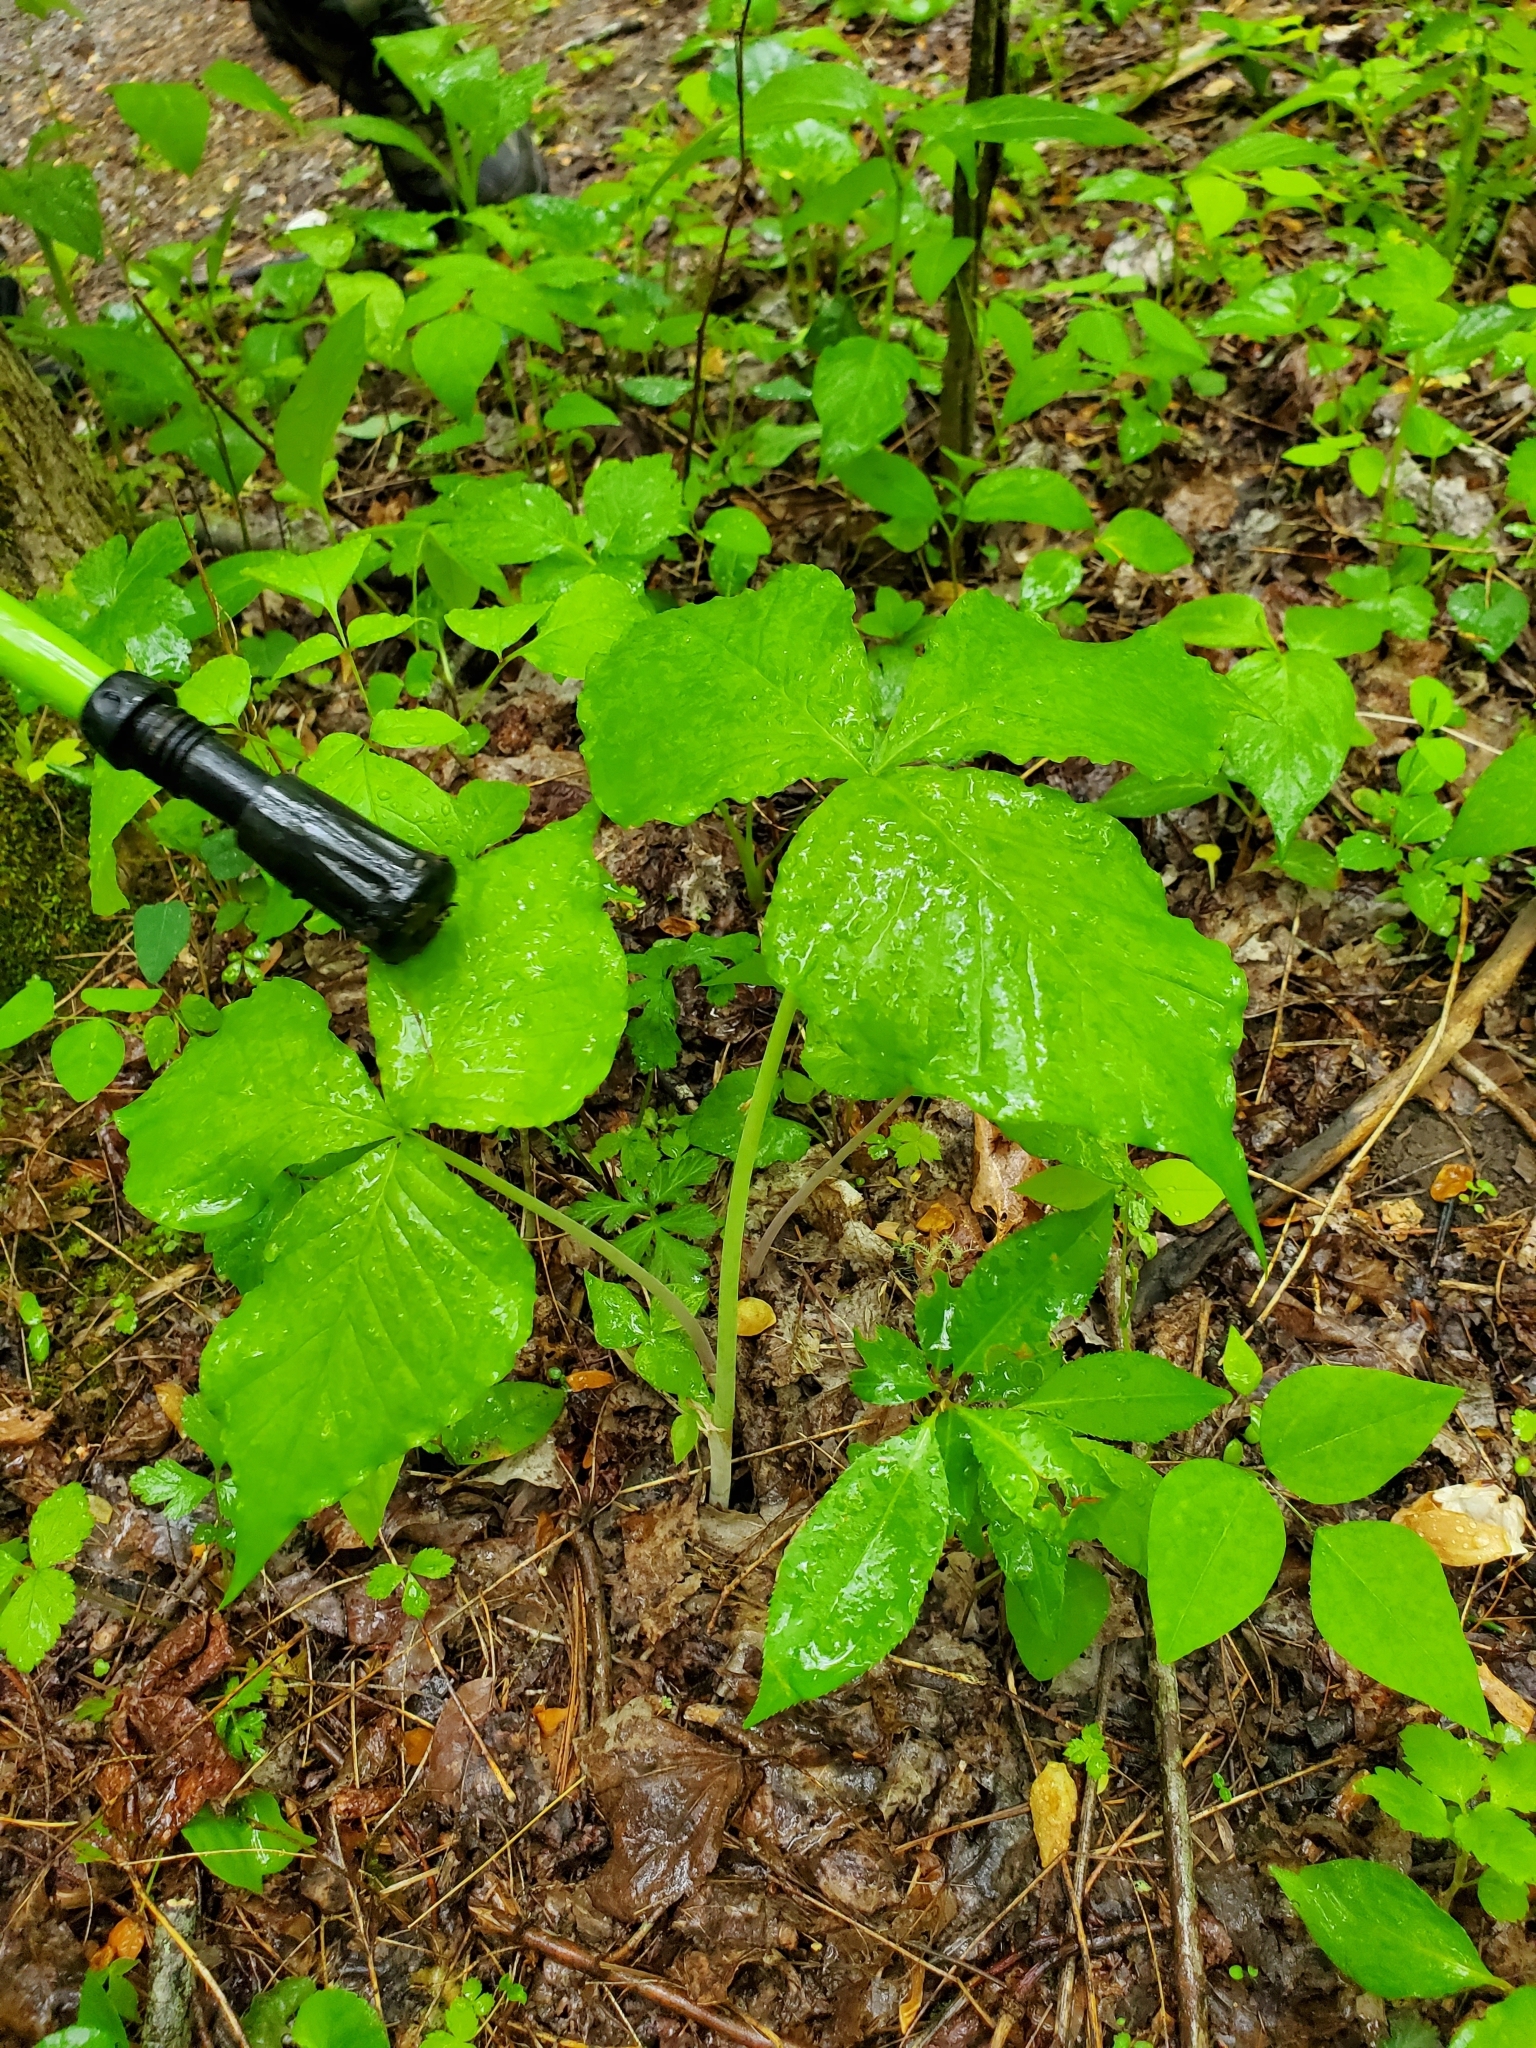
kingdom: Plantae
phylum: Tracheophyta
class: Liliopsida
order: Alismatales
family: Araceae
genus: Arisaema
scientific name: Arisaema triphyllum
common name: Jack-in-the-pulpit
